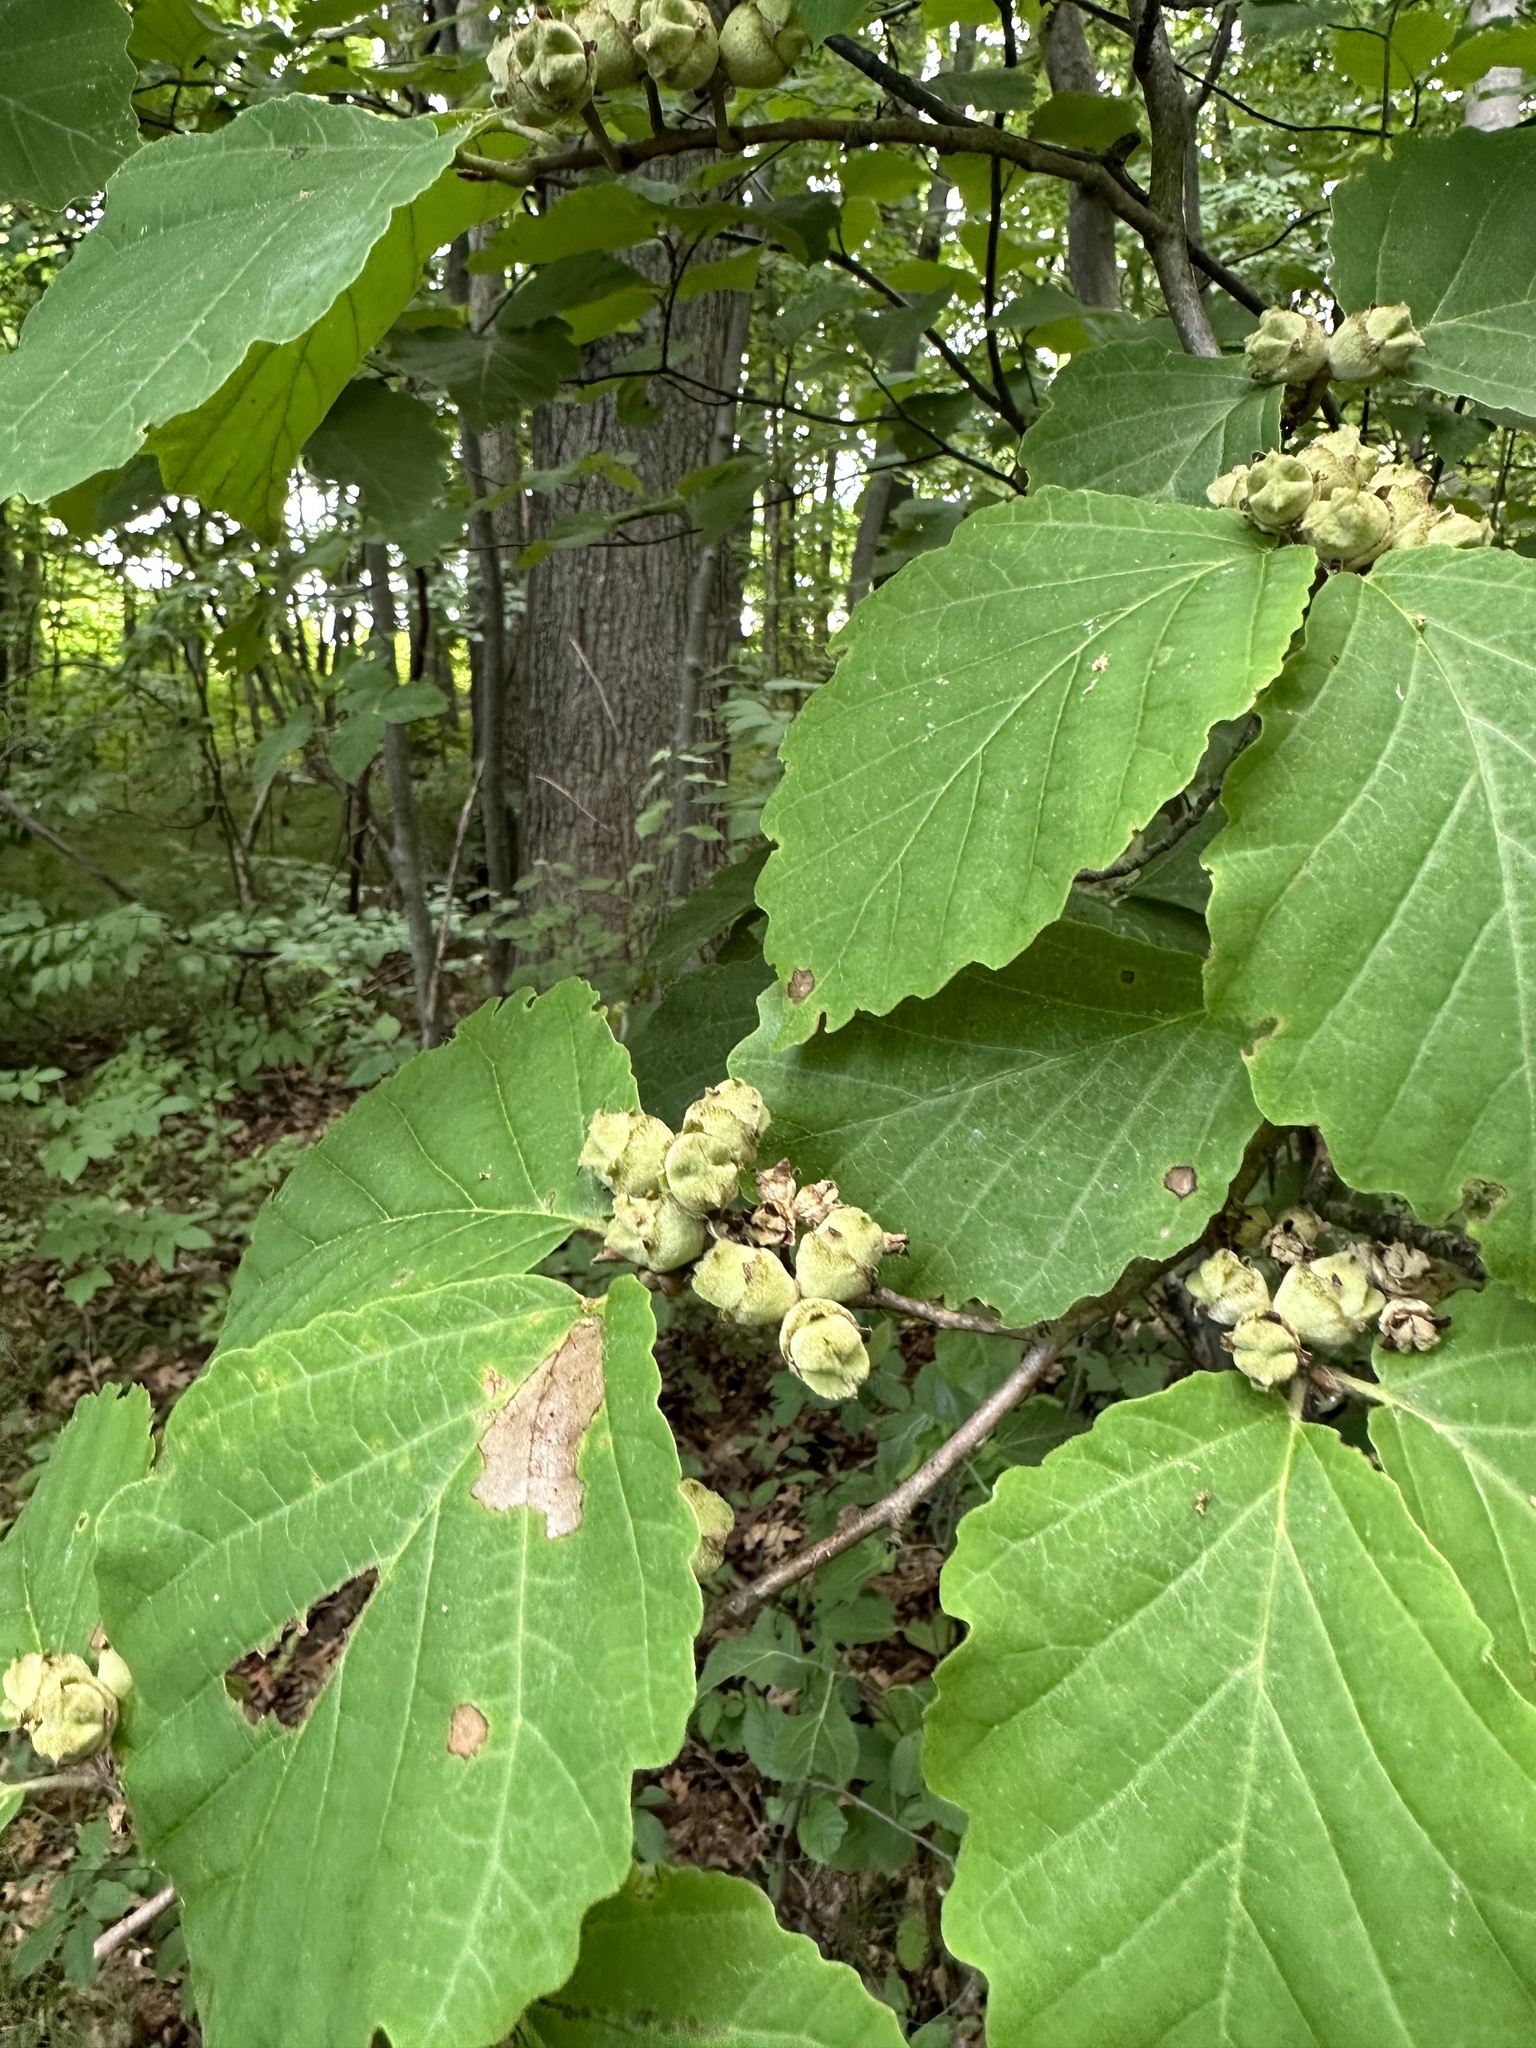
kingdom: Plantae
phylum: Tracheophyta
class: Magnoliopsida
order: Saxifragales
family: Hamamelidaceae
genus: Hamamelis
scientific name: Hamamelis virginiana
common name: Witch-hazel
